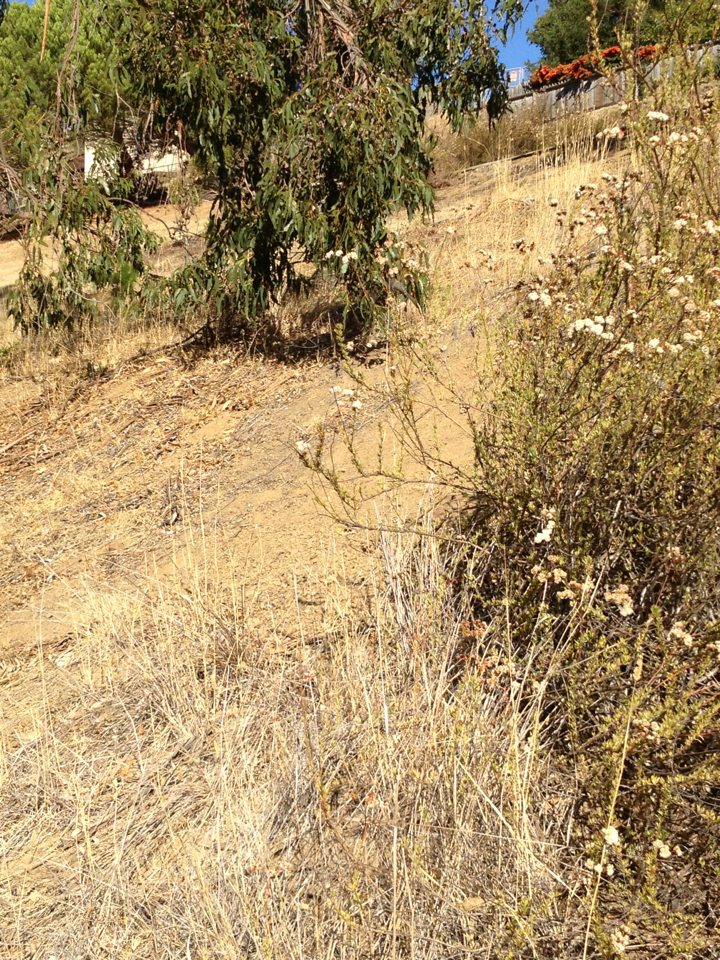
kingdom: Animalia
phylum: Chordata
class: Aves
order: Passeriformes
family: Aegithalidae
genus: Psaltriparus
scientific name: Psaltriparus minimus
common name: American bushtit
